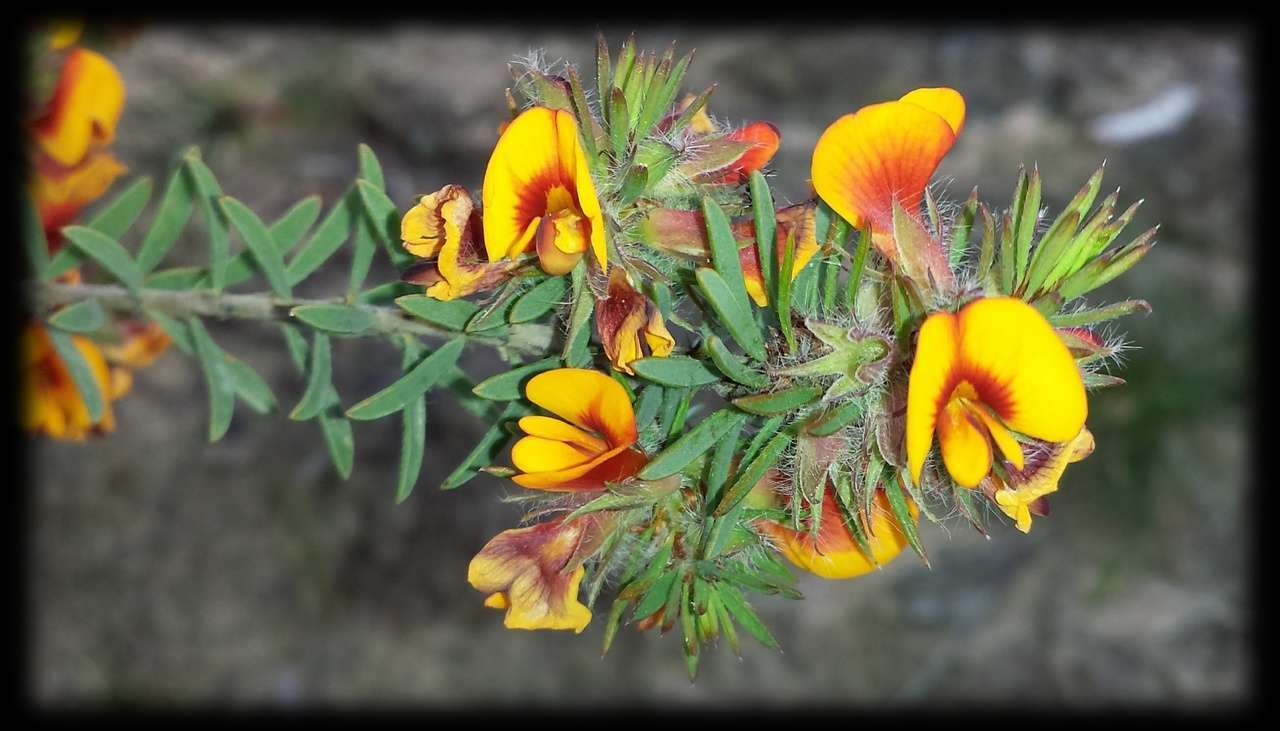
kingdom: Plantae
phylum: Tracheophyta
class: Magnoliopsida
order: Fabales
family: Fabaceae
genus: Pultenaea
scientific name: Pultenaea humilis
